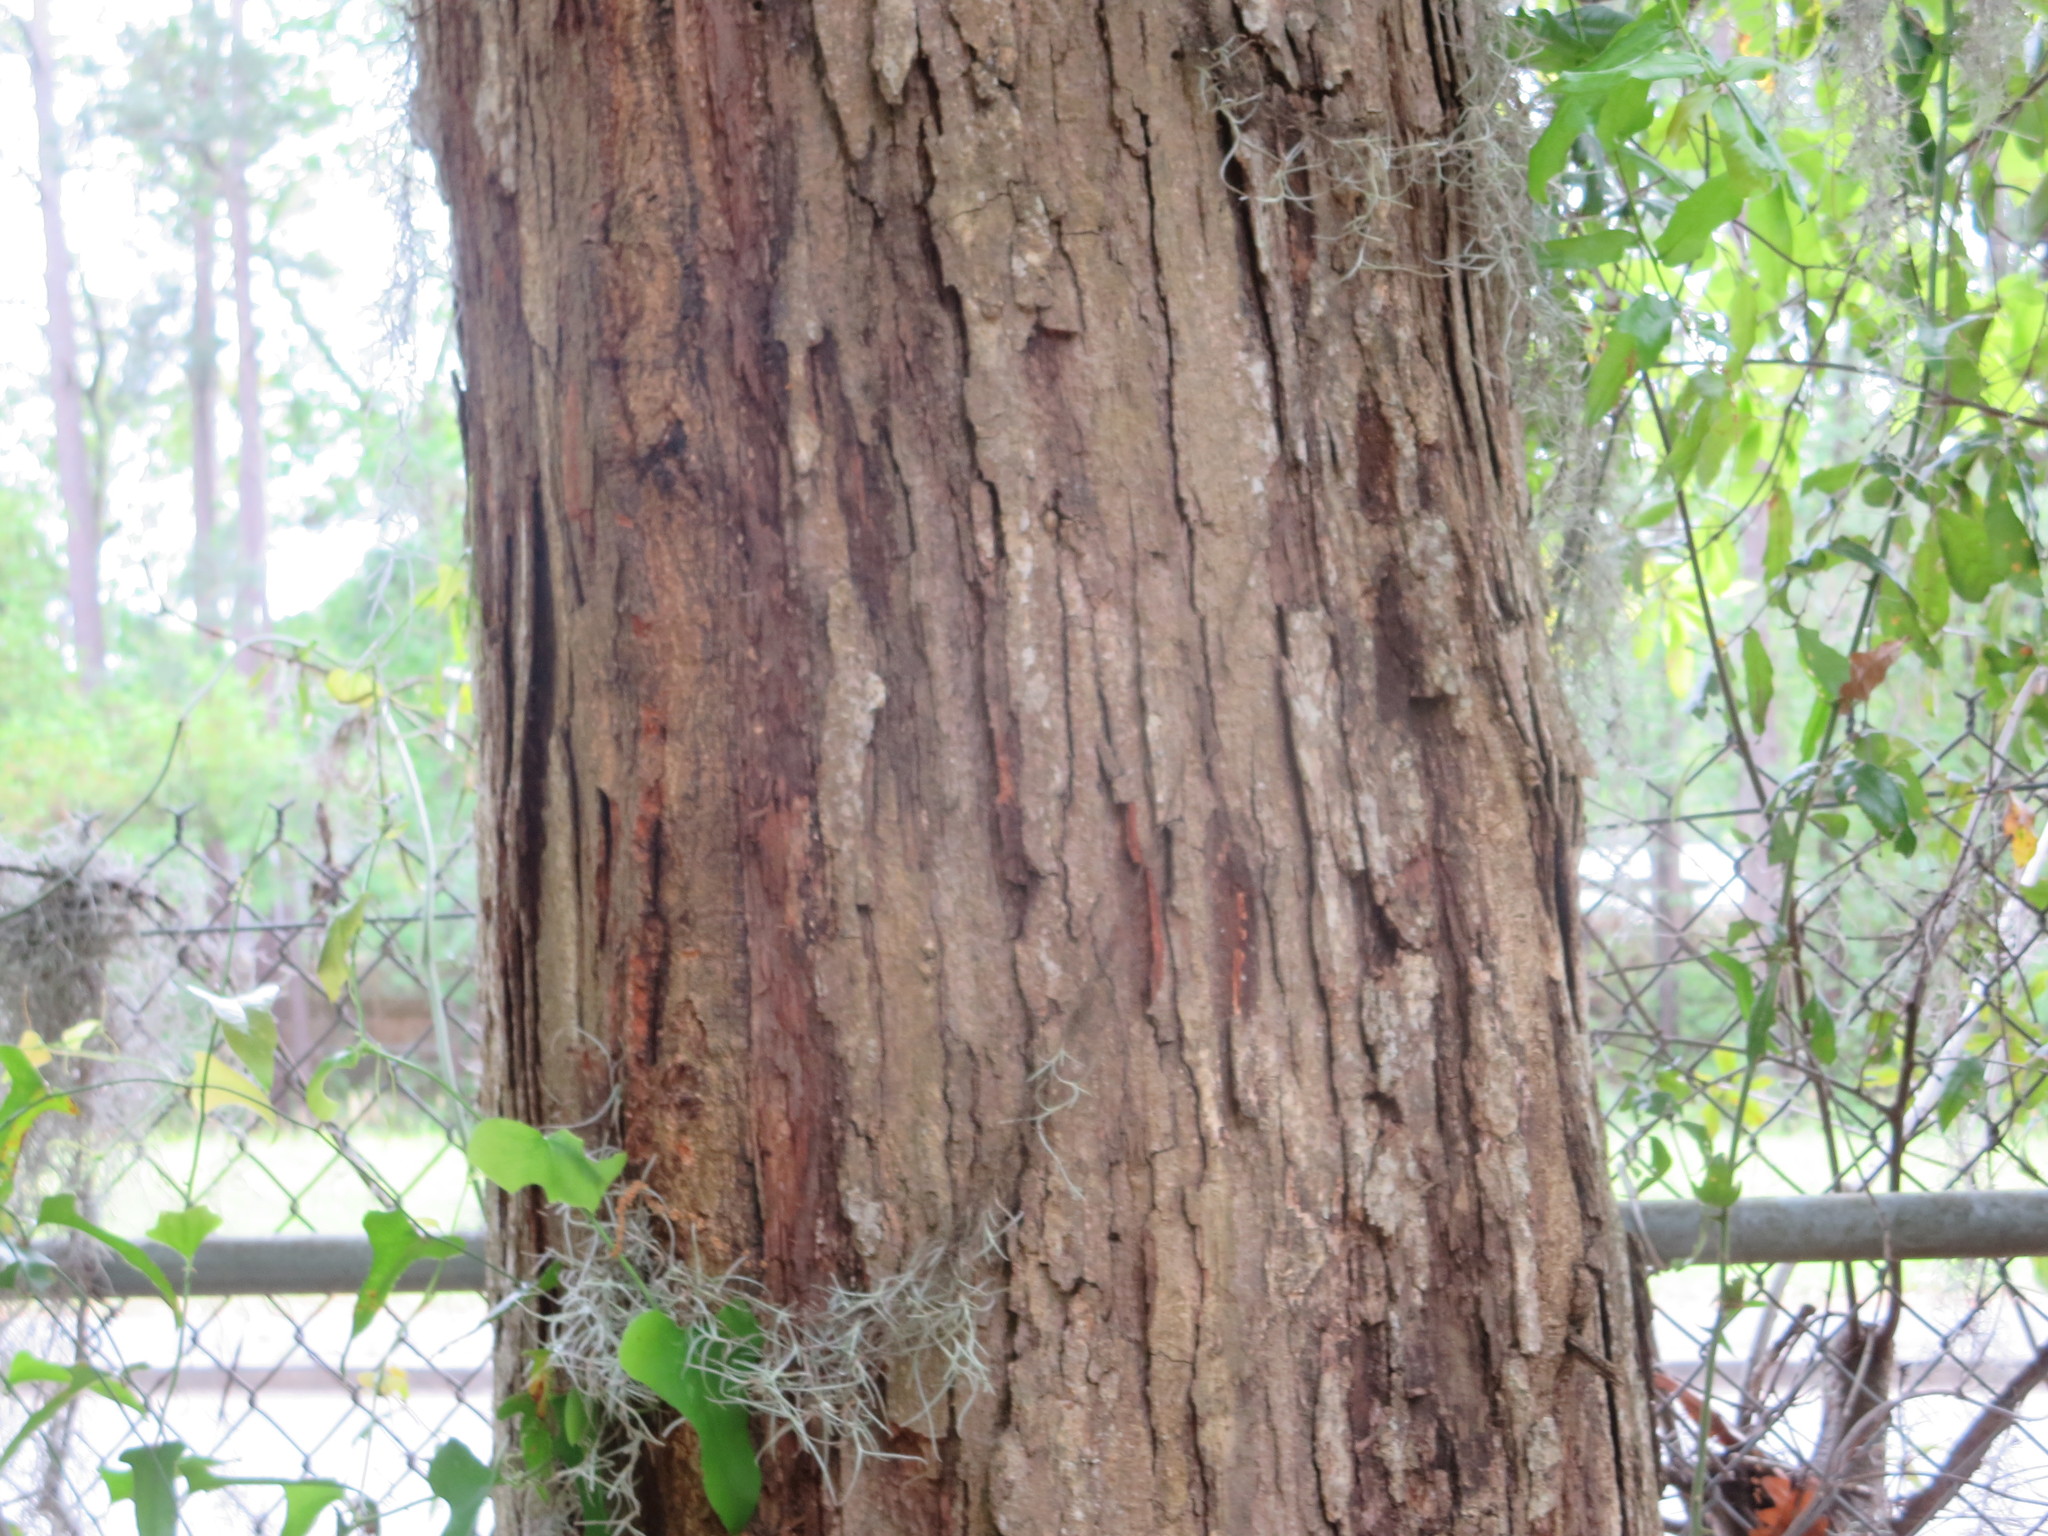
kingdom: Plantae
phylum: Tracheophyta
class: Magnoliopsida
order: Fagales
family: Fagaceae
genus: Quercus
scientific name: Quercus alba
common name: White oak
